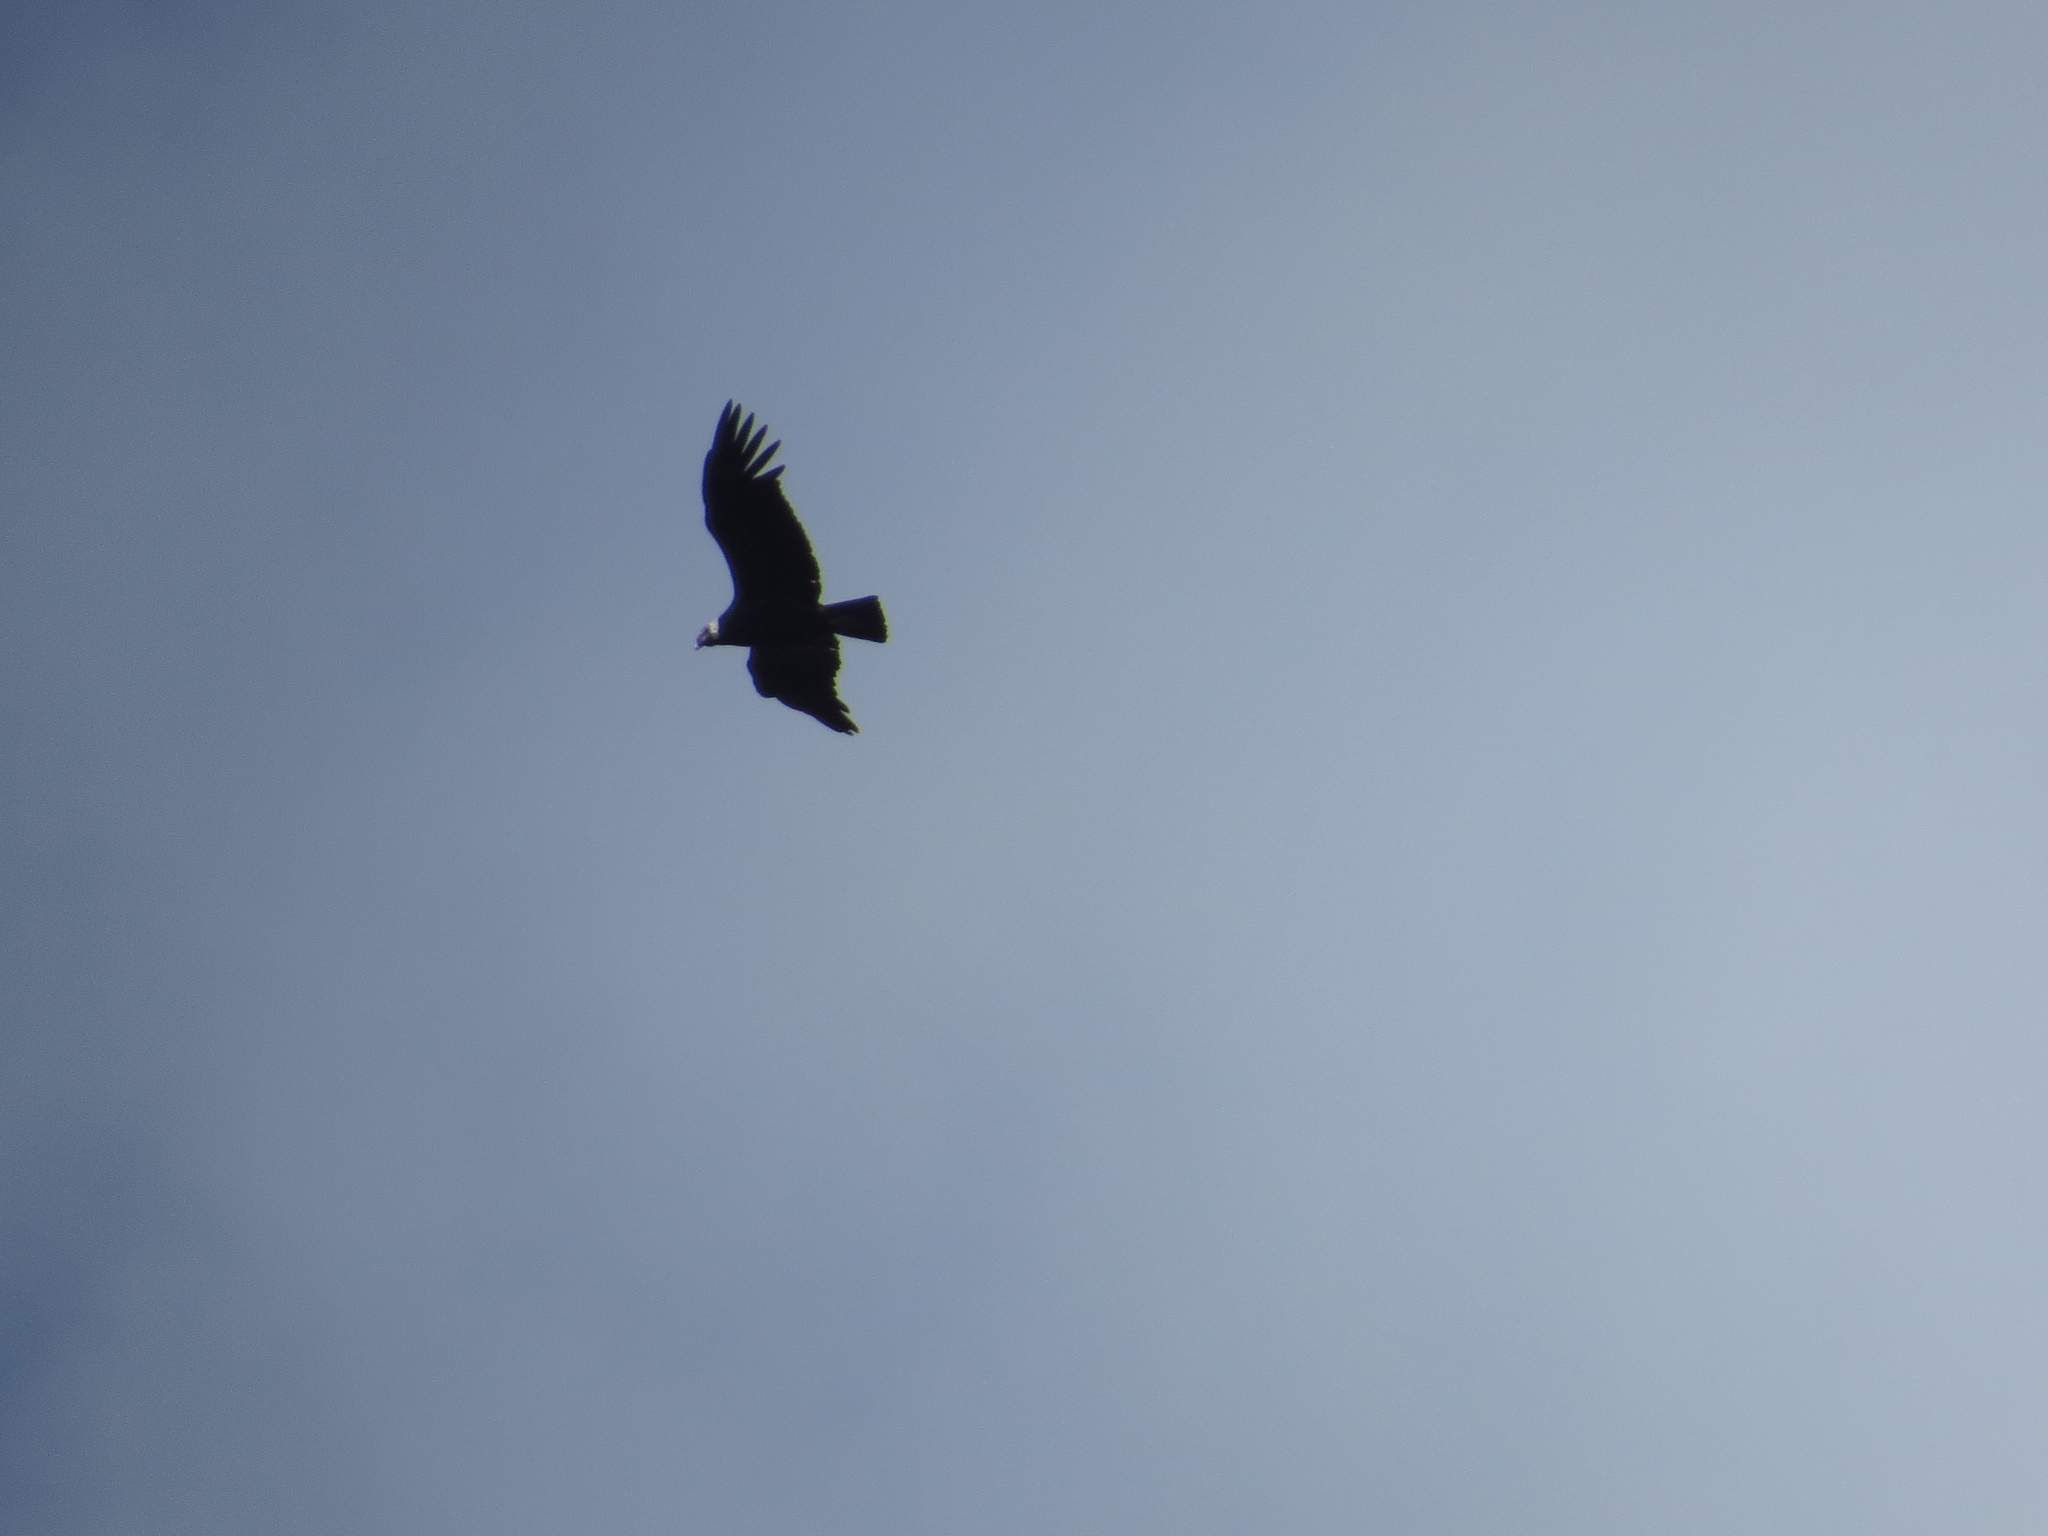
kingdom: Animalia
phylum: Chordata
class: Aves
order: Accipitriformes
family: Cathartidae
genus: Vultur
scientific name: Vultur gryphus
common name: Andean condor
